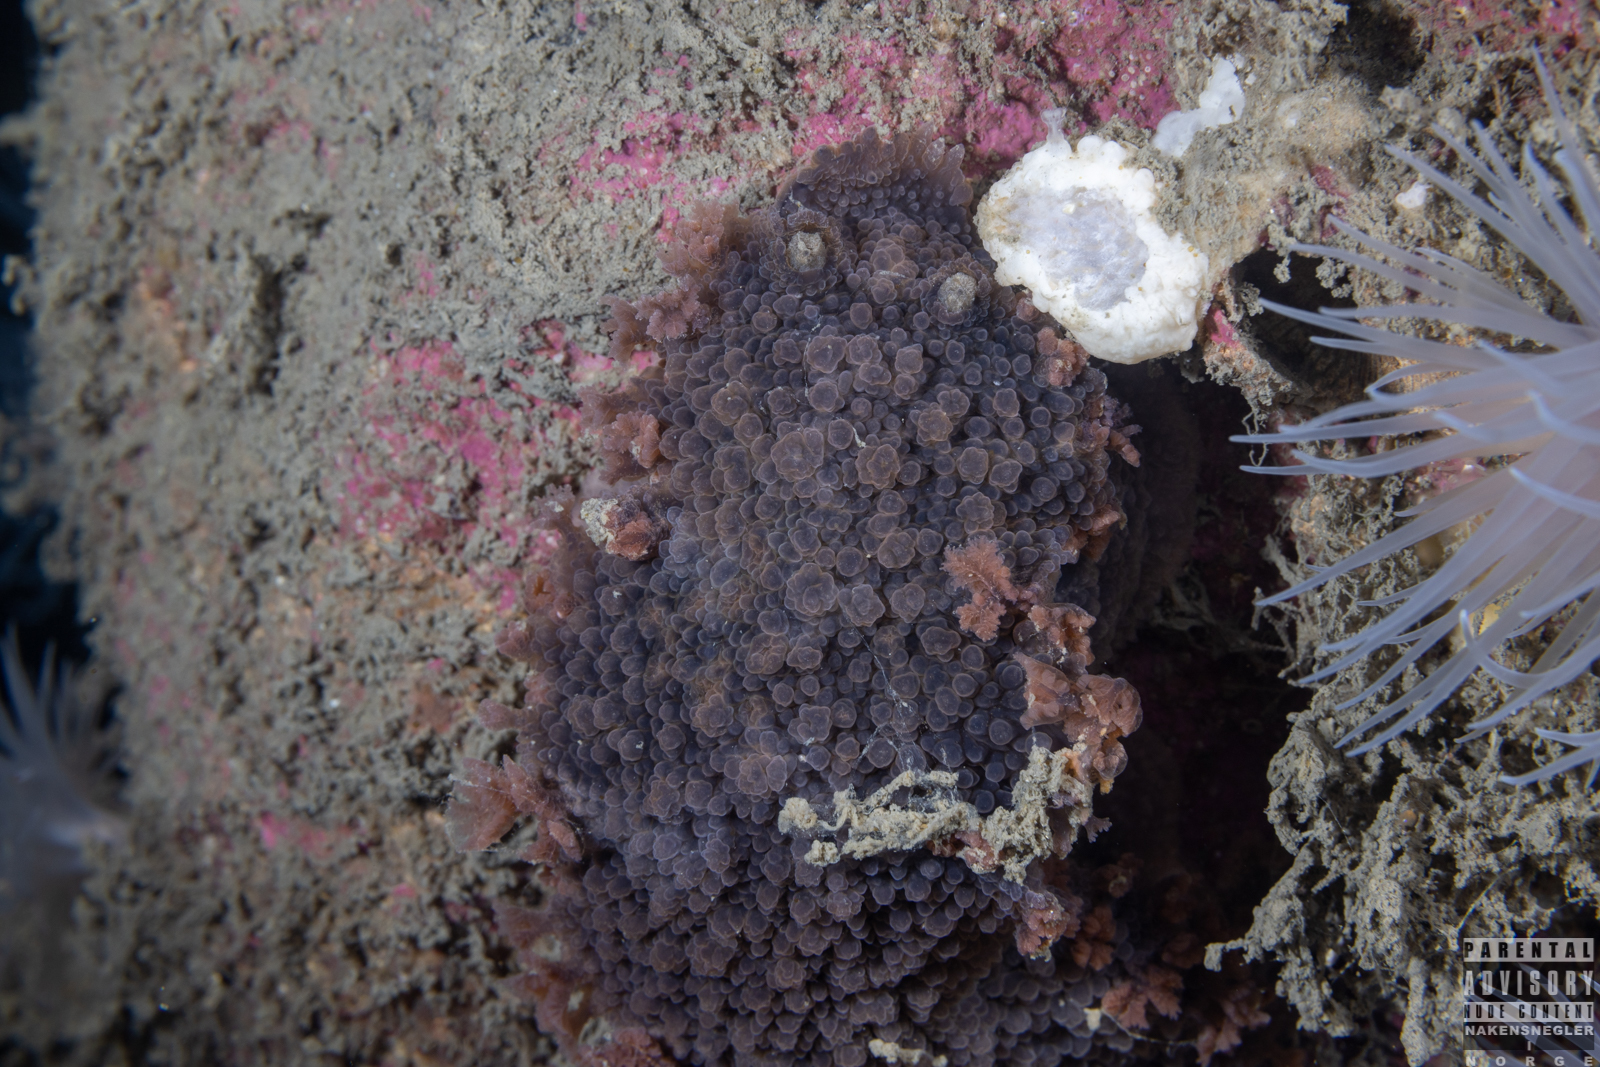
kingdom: Animalia
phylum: Mollusca
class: Gastropoda
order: Nudibranchia
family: Tritoniidae
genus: Tritonia
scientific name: Tritonia hombergii
